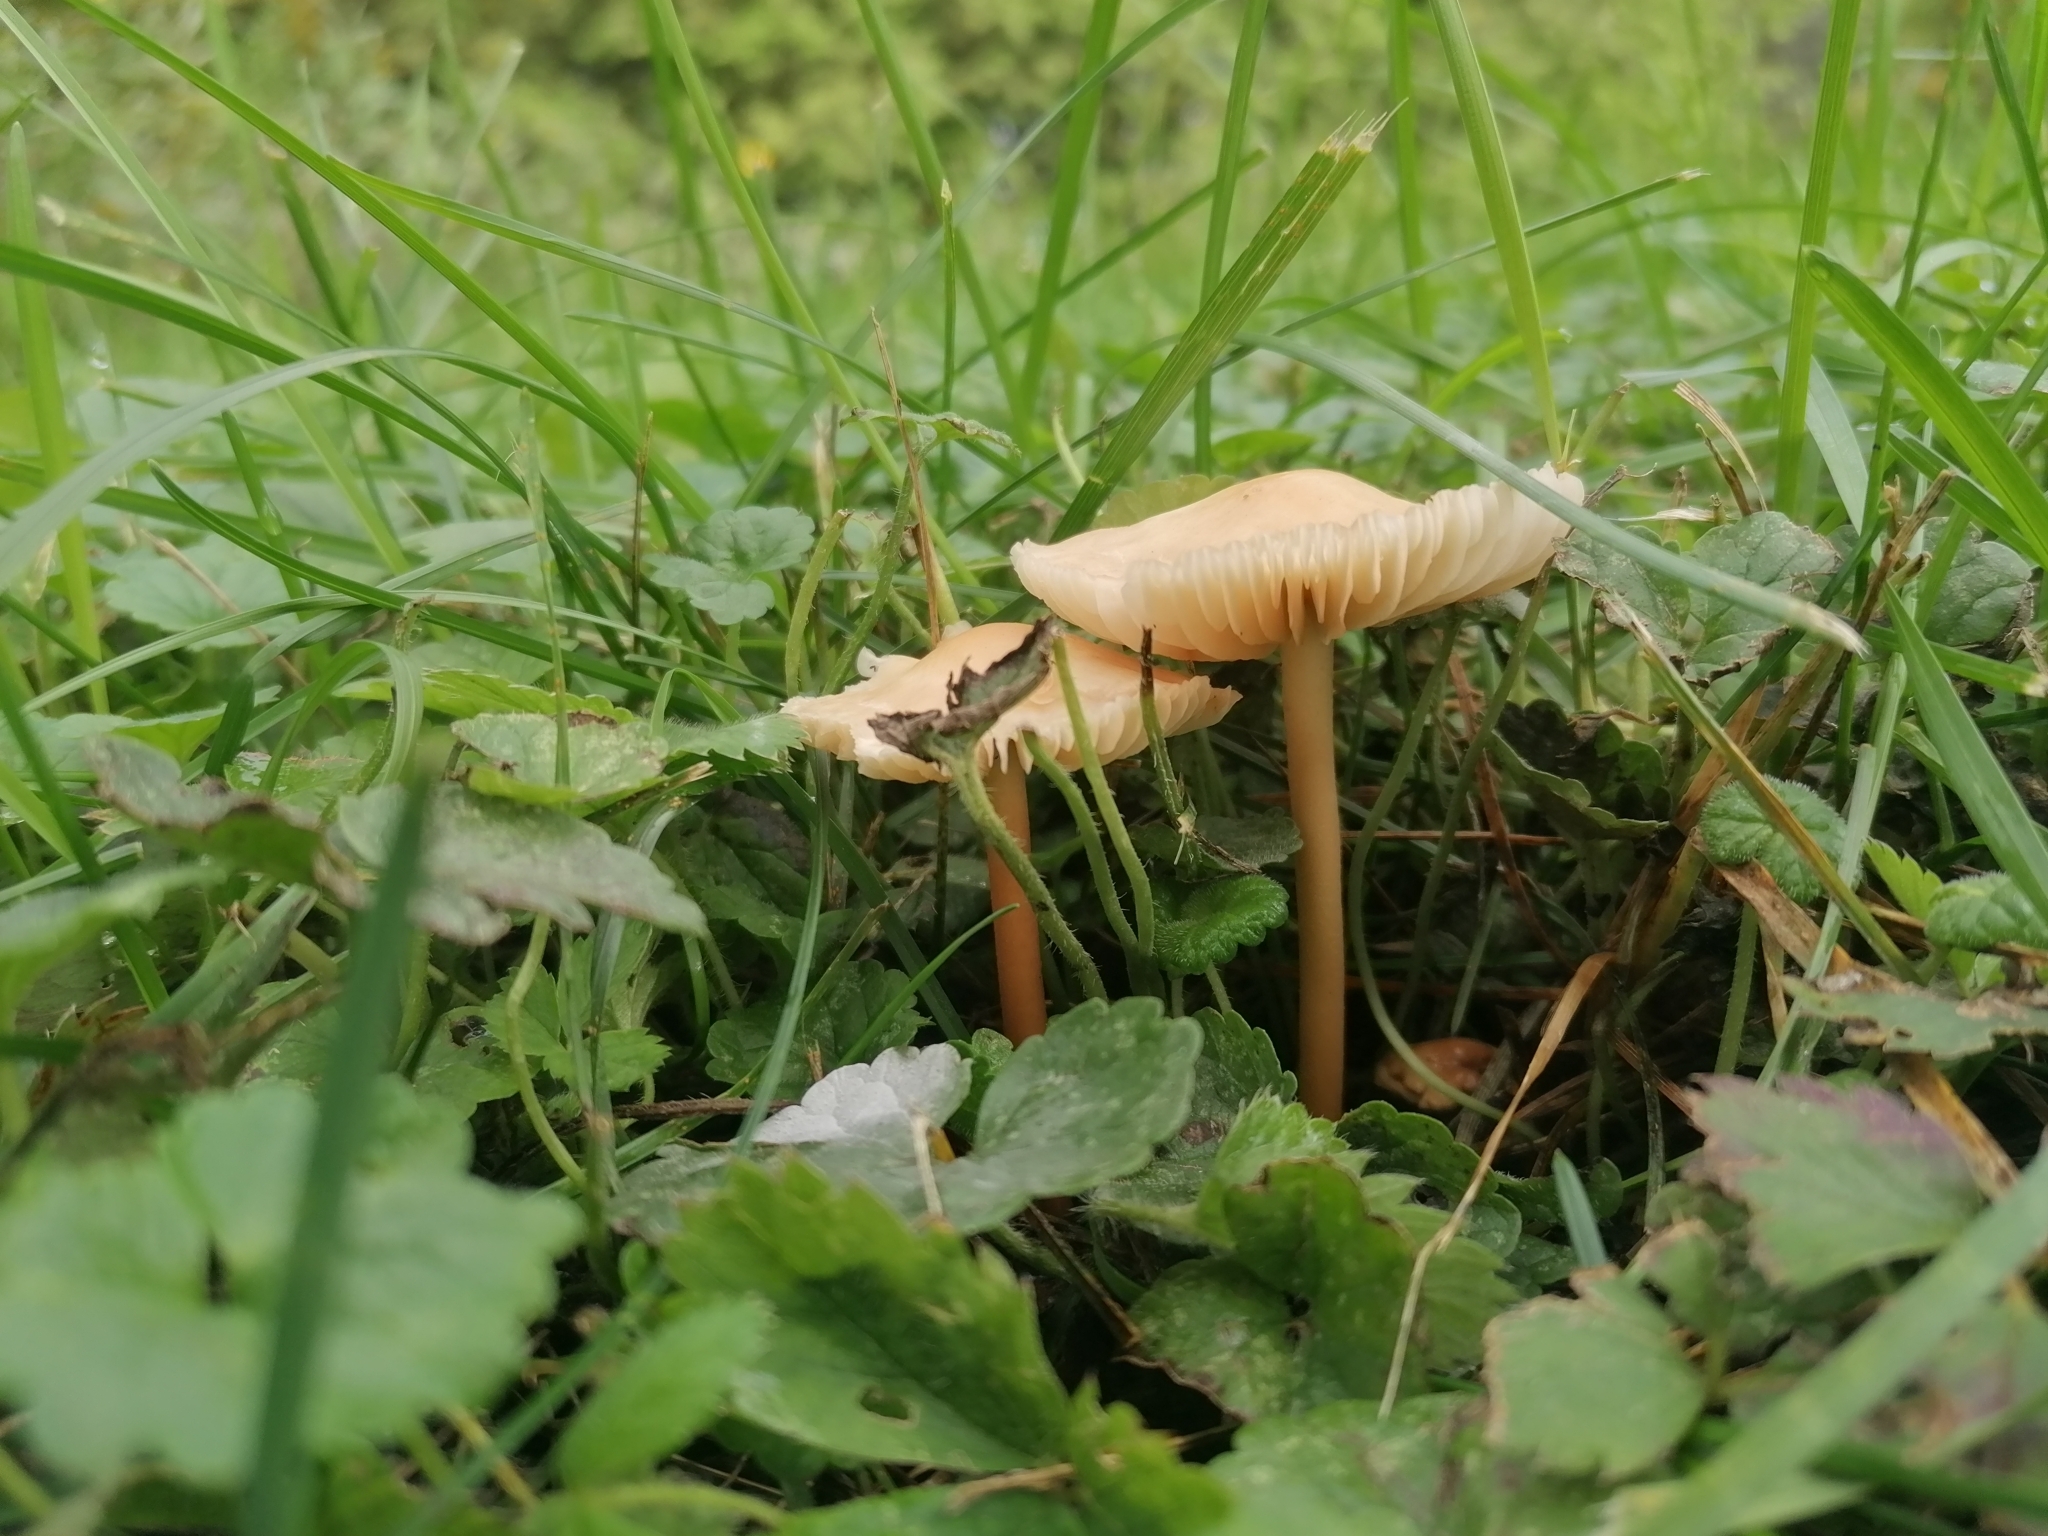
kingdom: Fungi
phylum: Basidiomycota
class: Agaricomycetes
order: Agaricales
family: Marasmiaceae
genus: Marasmius
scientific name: Marasmius oreades
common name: Fairy ring champignon
